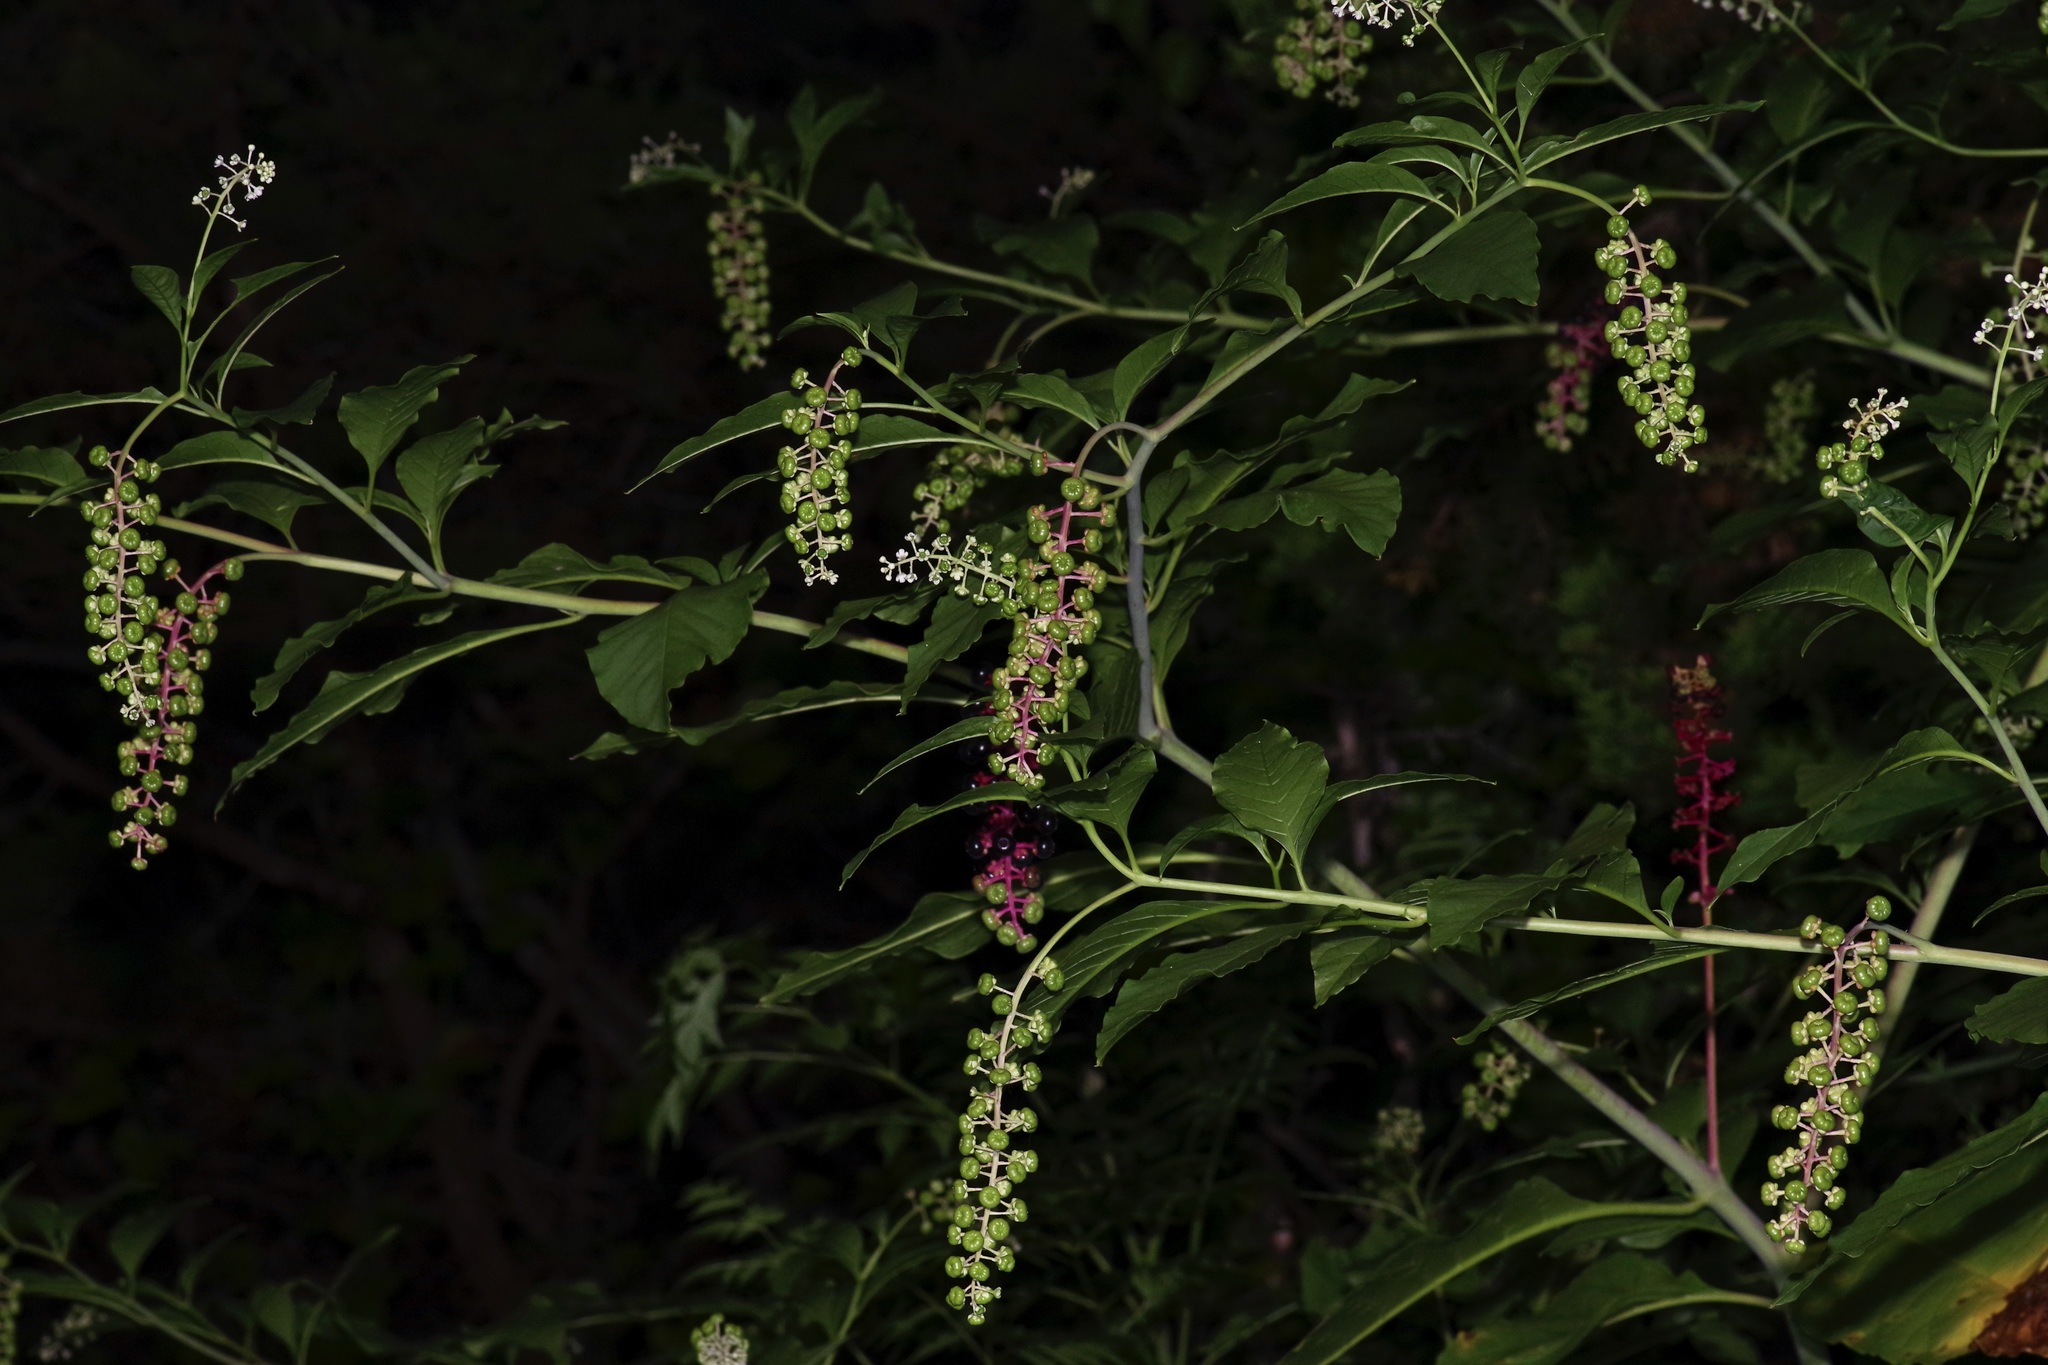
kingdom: Plantae
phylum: Tracheophyta
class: Magnoliopsida
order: Caryophyllales
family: Phytolaccaceae
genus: Phytolacca
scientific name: Phytolacca americana
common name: American pokeweed
